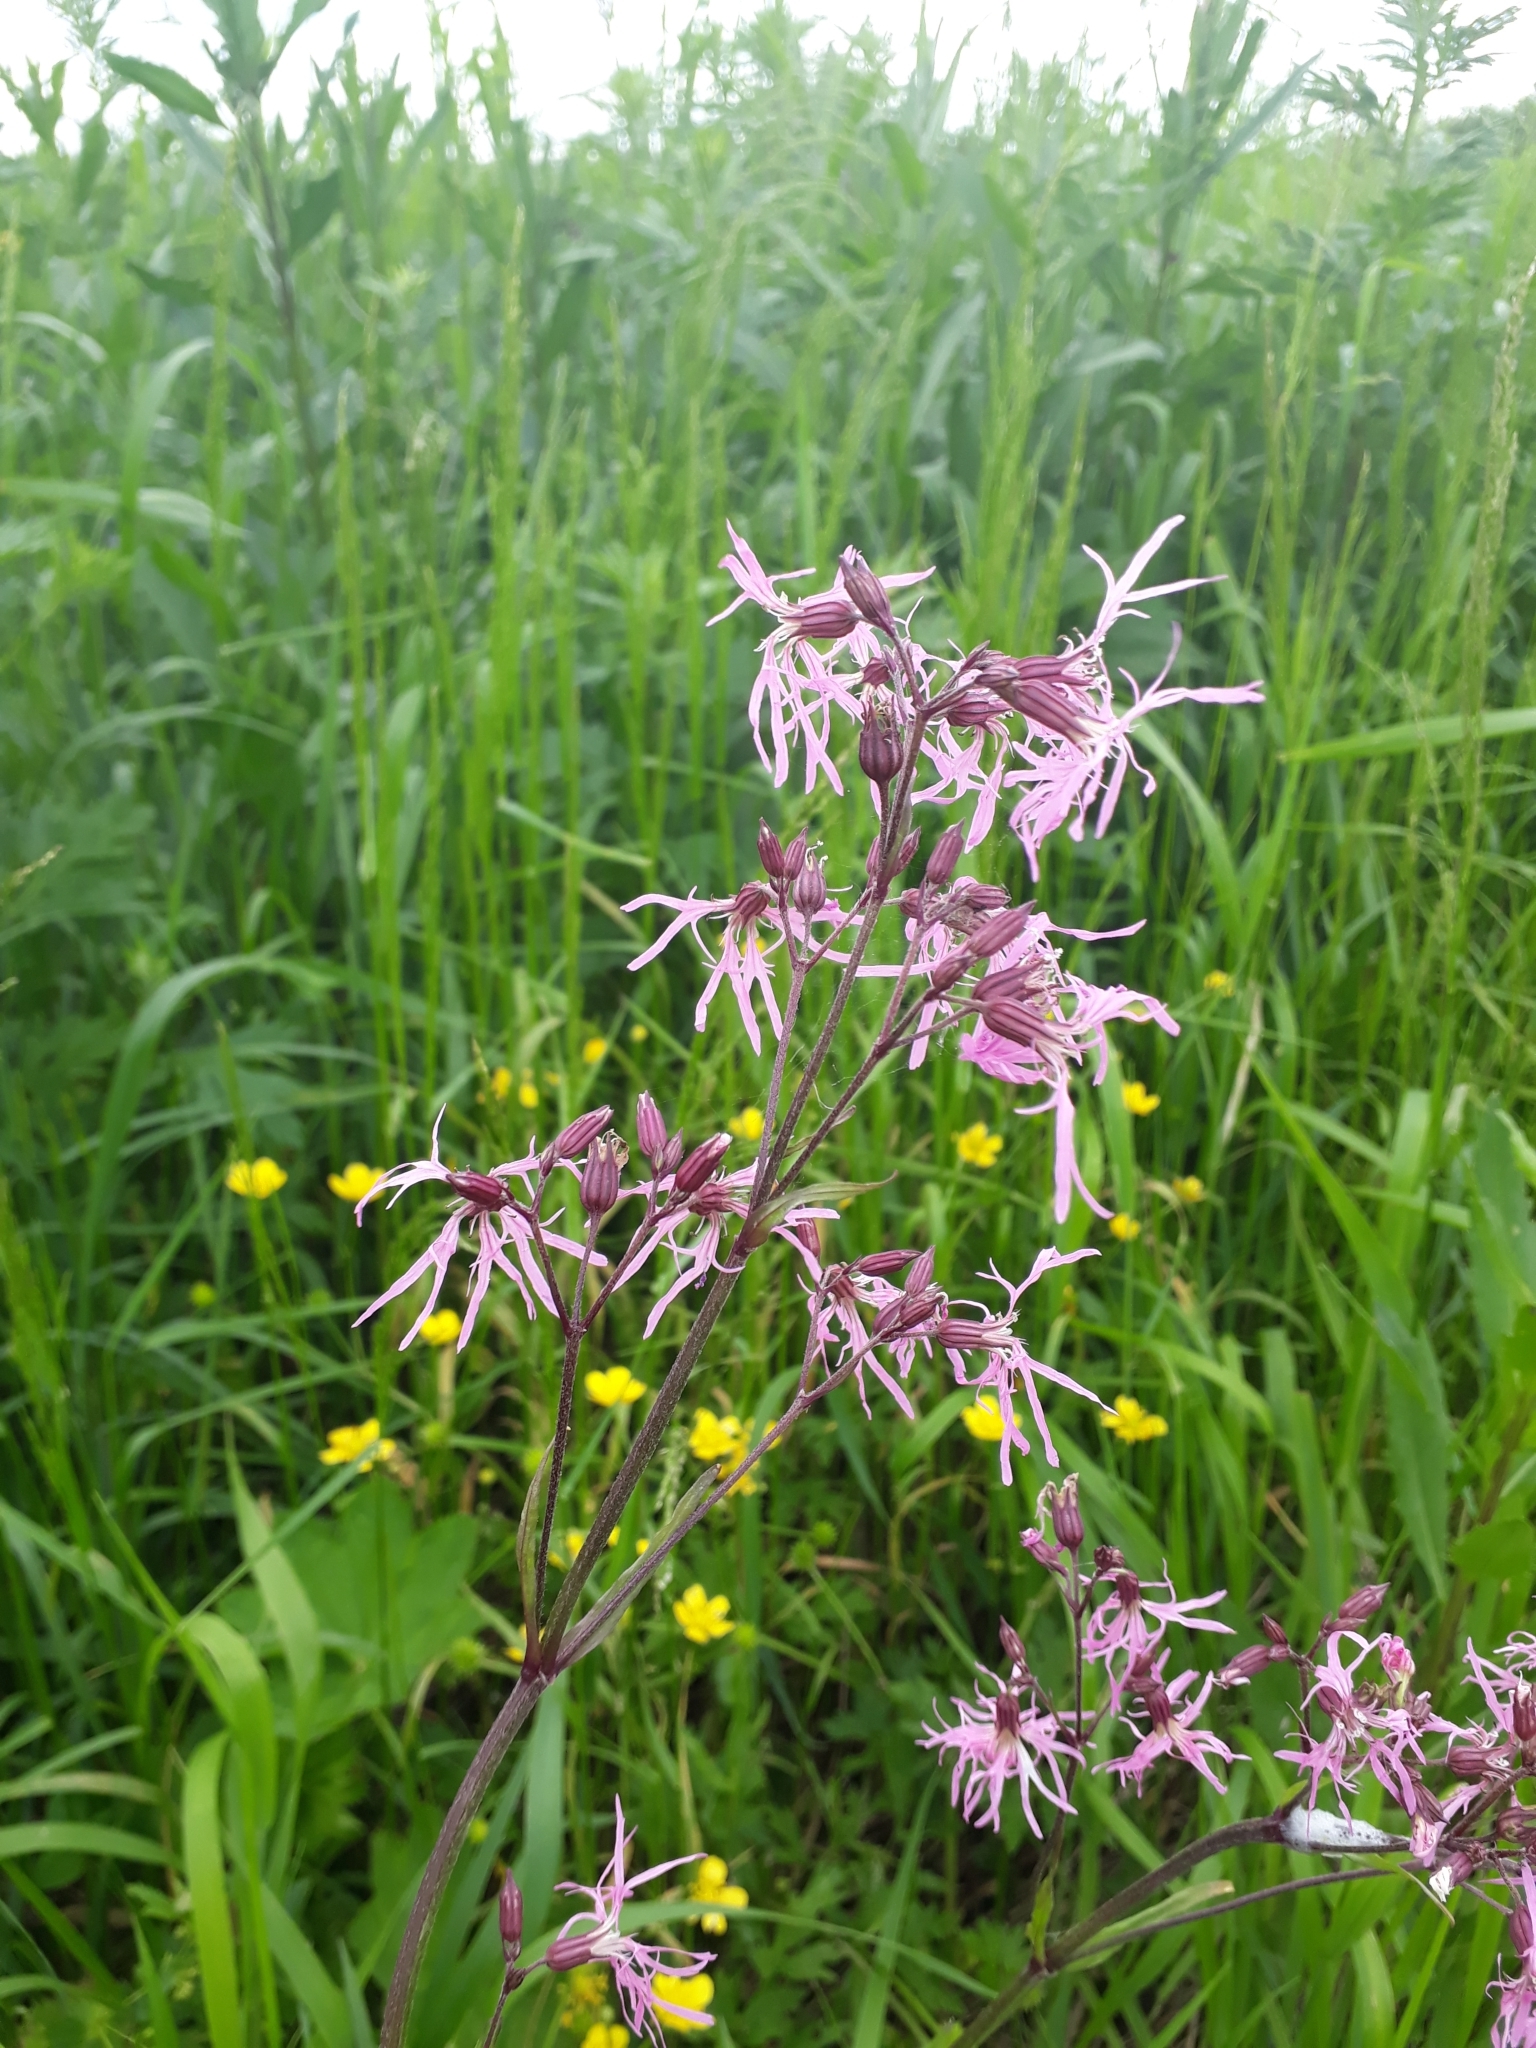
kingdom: Plantae
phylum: Tracheophyta
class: Magnoliopsida
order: Caryophyllales
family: Caryophyllaceae
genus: Silene
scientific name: Silene flos-cuculi
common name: Ragged-robin
